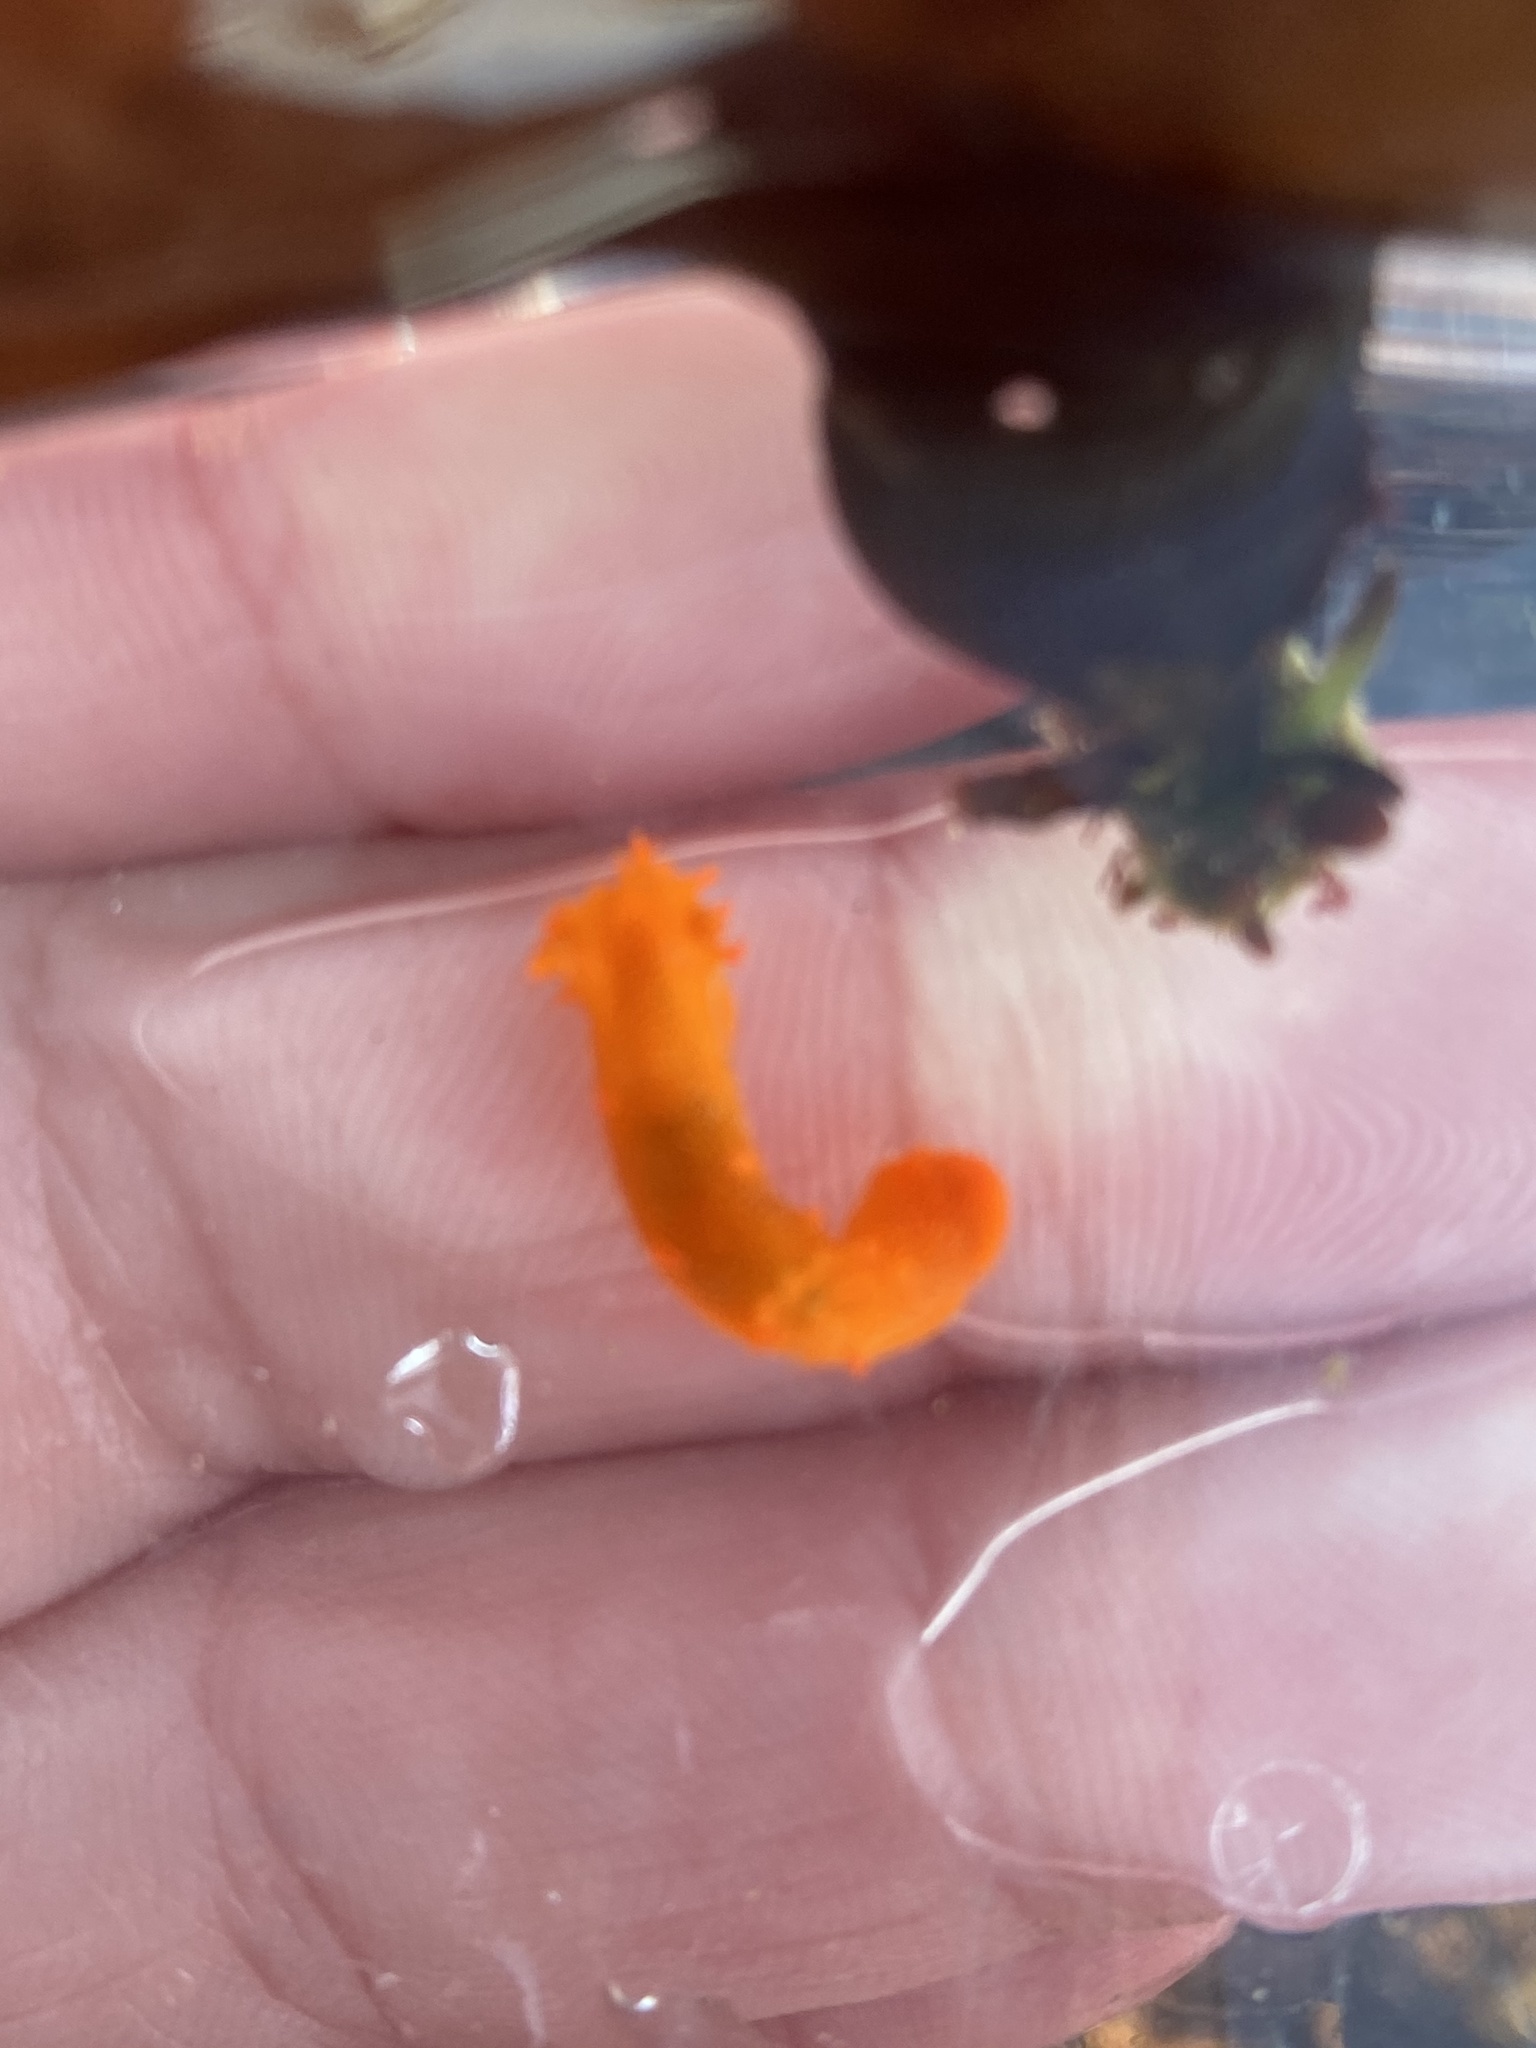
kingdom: Animalia
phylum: Mollusca
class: Gastropoda
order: Nudibranchia
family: Polyceridae
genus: Triopha
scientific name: Triopha maculata
